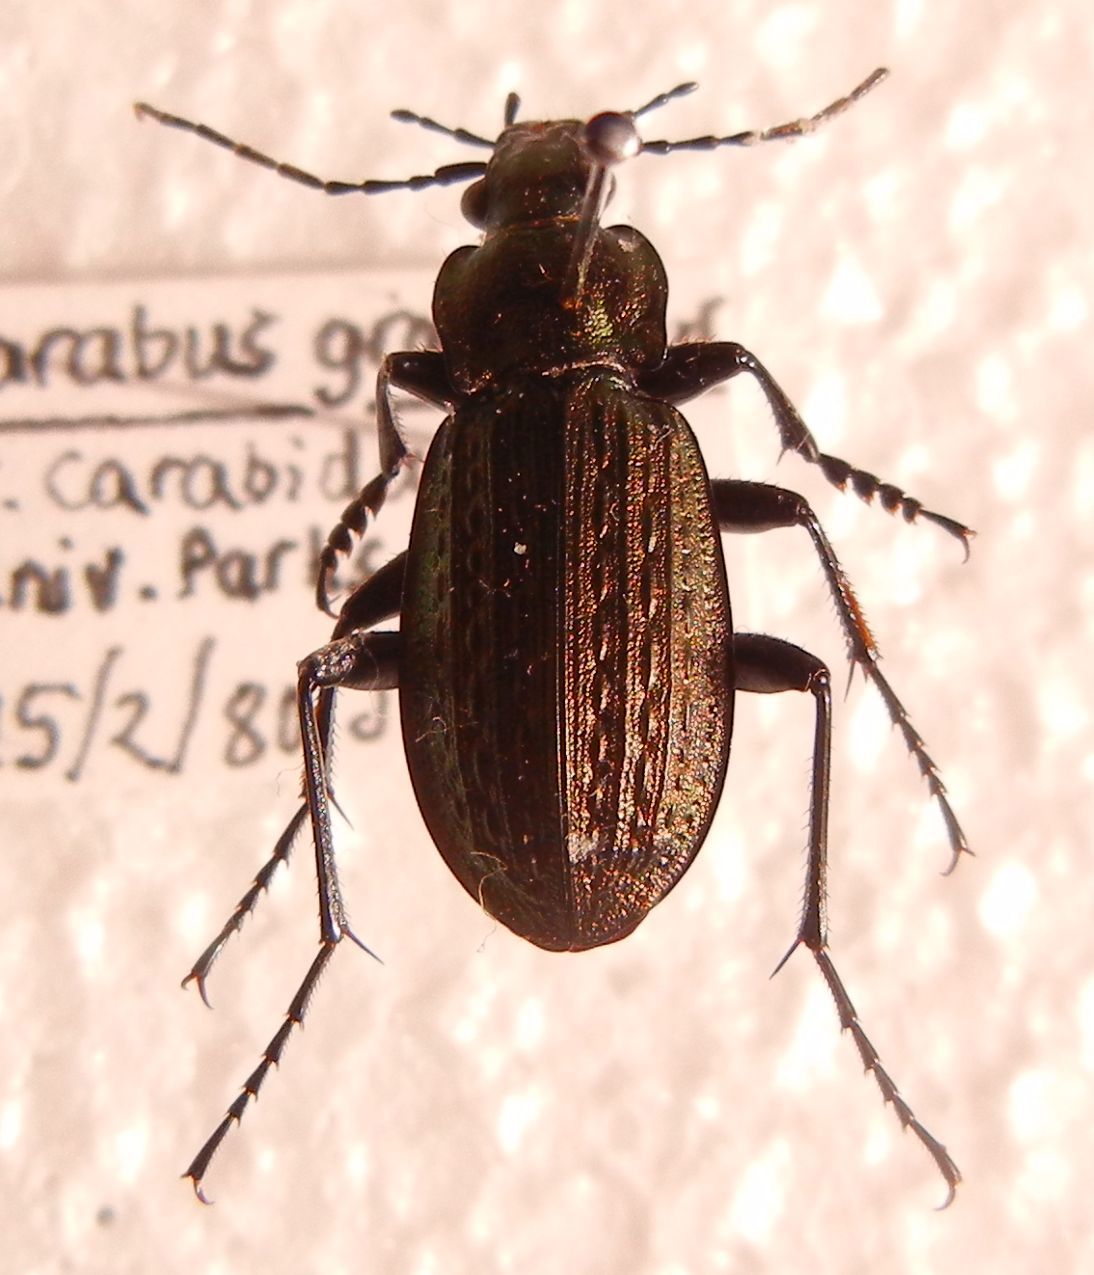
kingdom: Animalia
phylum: Arthropoda
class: Insecta
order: Coleoptera
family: Carabidae
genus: Carabus
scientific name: Carabus granulatus
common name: Granulate ground beetle
